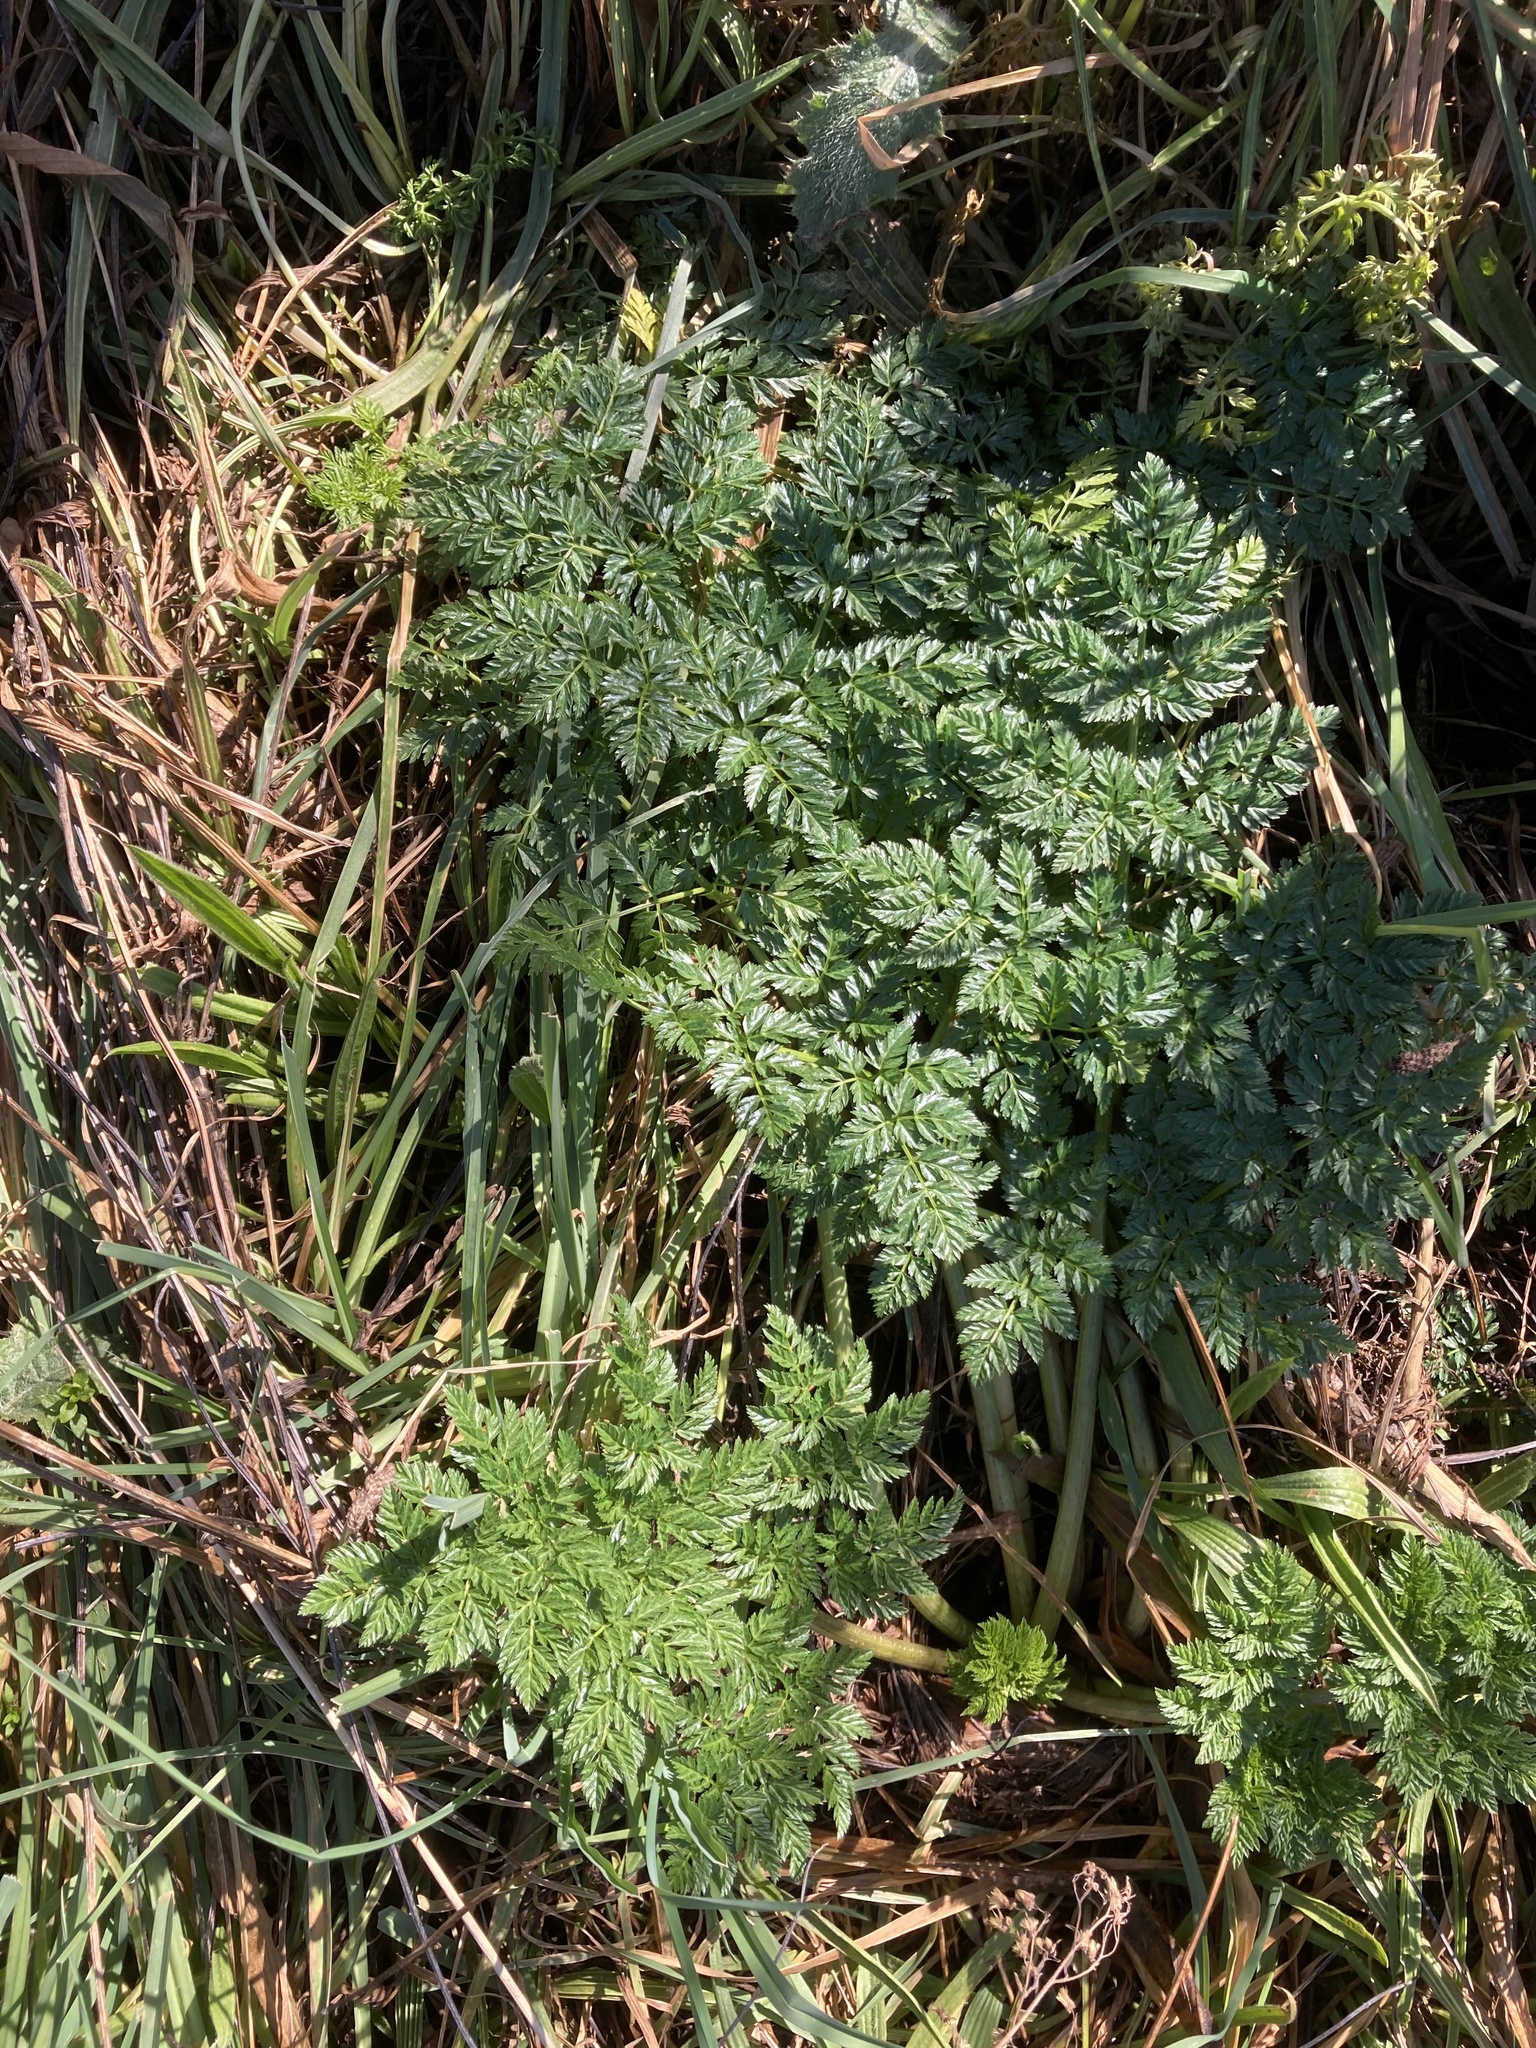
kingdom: Plantae
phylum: Tracheophyta
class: Magnoliopsida
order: Apiales
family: Apiaceae
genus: Conium
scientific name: Conium maculatum
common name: Hemlock
